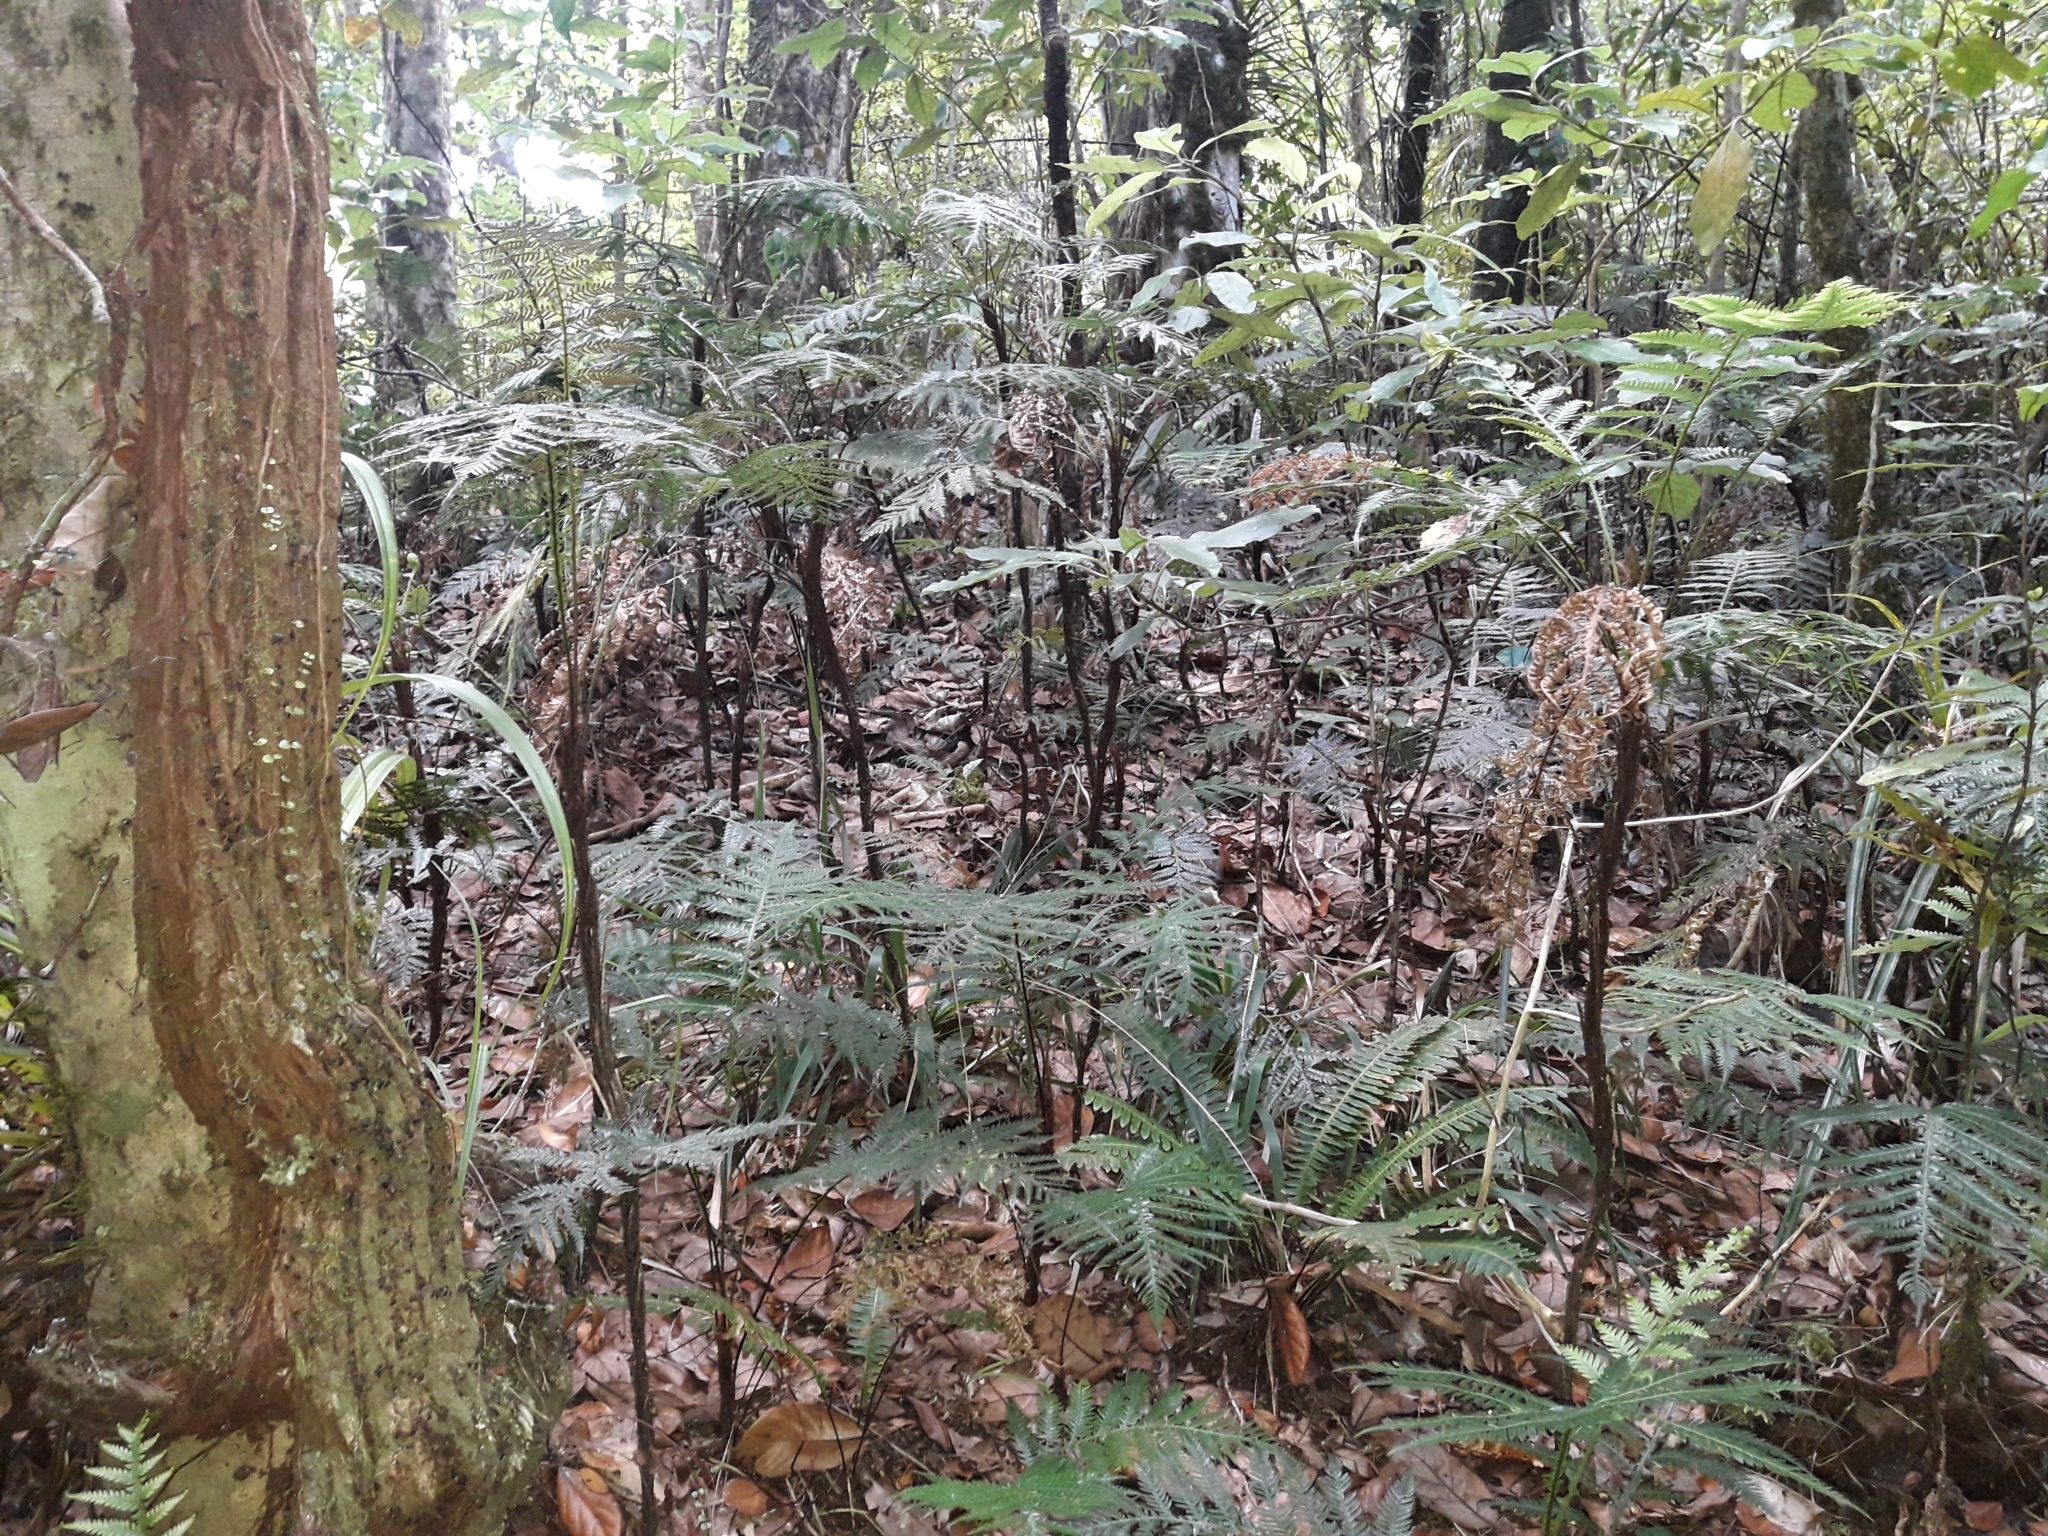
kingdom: Plantae
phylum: Tracheophyta
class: Polypodiopsida
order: Polypodiales
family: Blechnaceae
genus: Diploblechnum
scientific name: Diploblechnum fraseri
